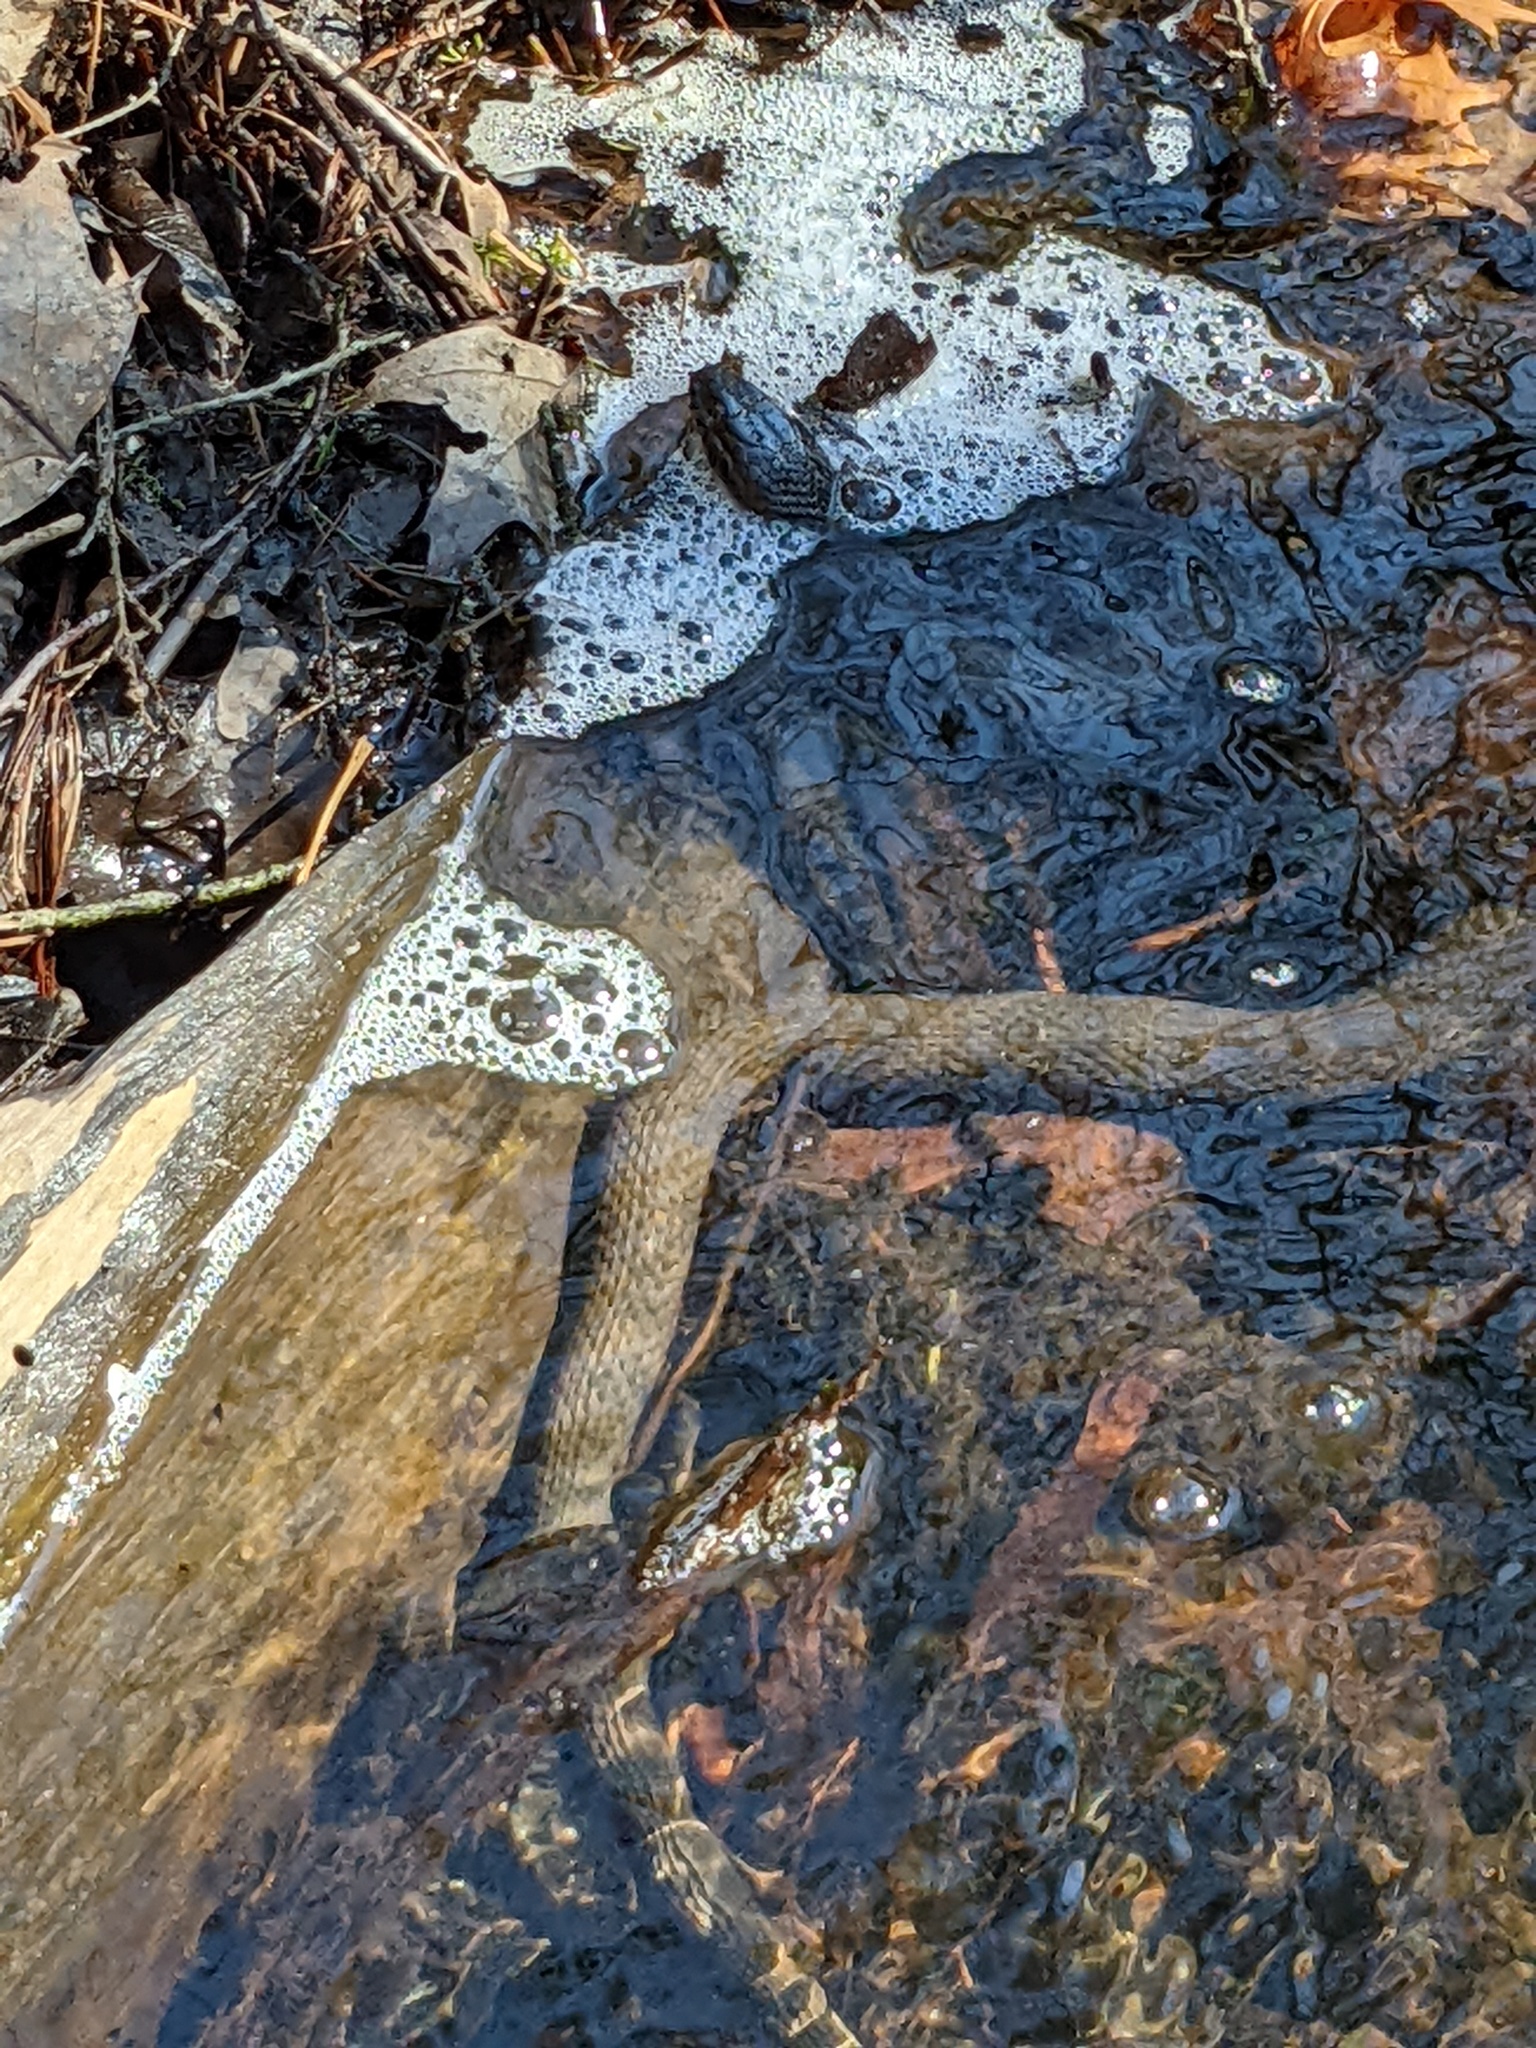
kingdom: Animalia
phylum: Chordata
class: Squamata
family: Colubridae
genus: Nerodia
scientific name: Nerodia sipedon
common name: Northern water snake
